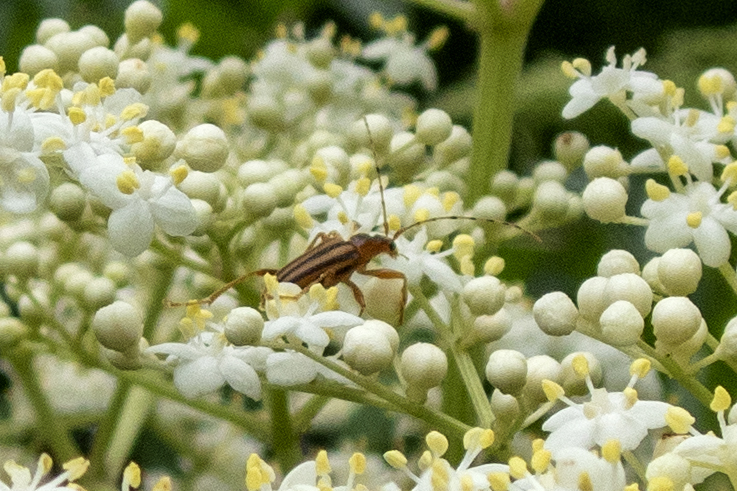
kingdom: Animalia
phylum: Arthropoda
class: Insecta
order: Coleoptera
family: Cerambycidae
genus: Metacmaeops
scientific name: Metacmaeops vittata
